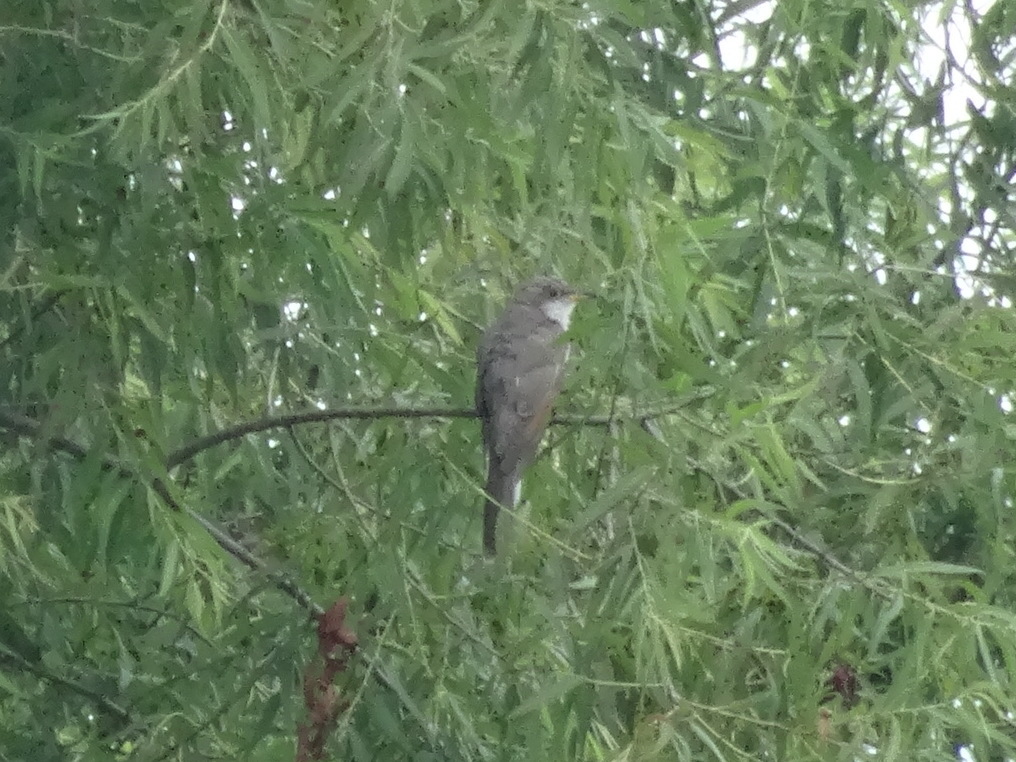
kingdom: Animalia
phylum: Chordata
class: Aves
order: Cuculiformes
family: Cuculidae
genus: Coccyzus
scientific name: Coccyzus americanus
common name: Yellow-billed cuckoo
